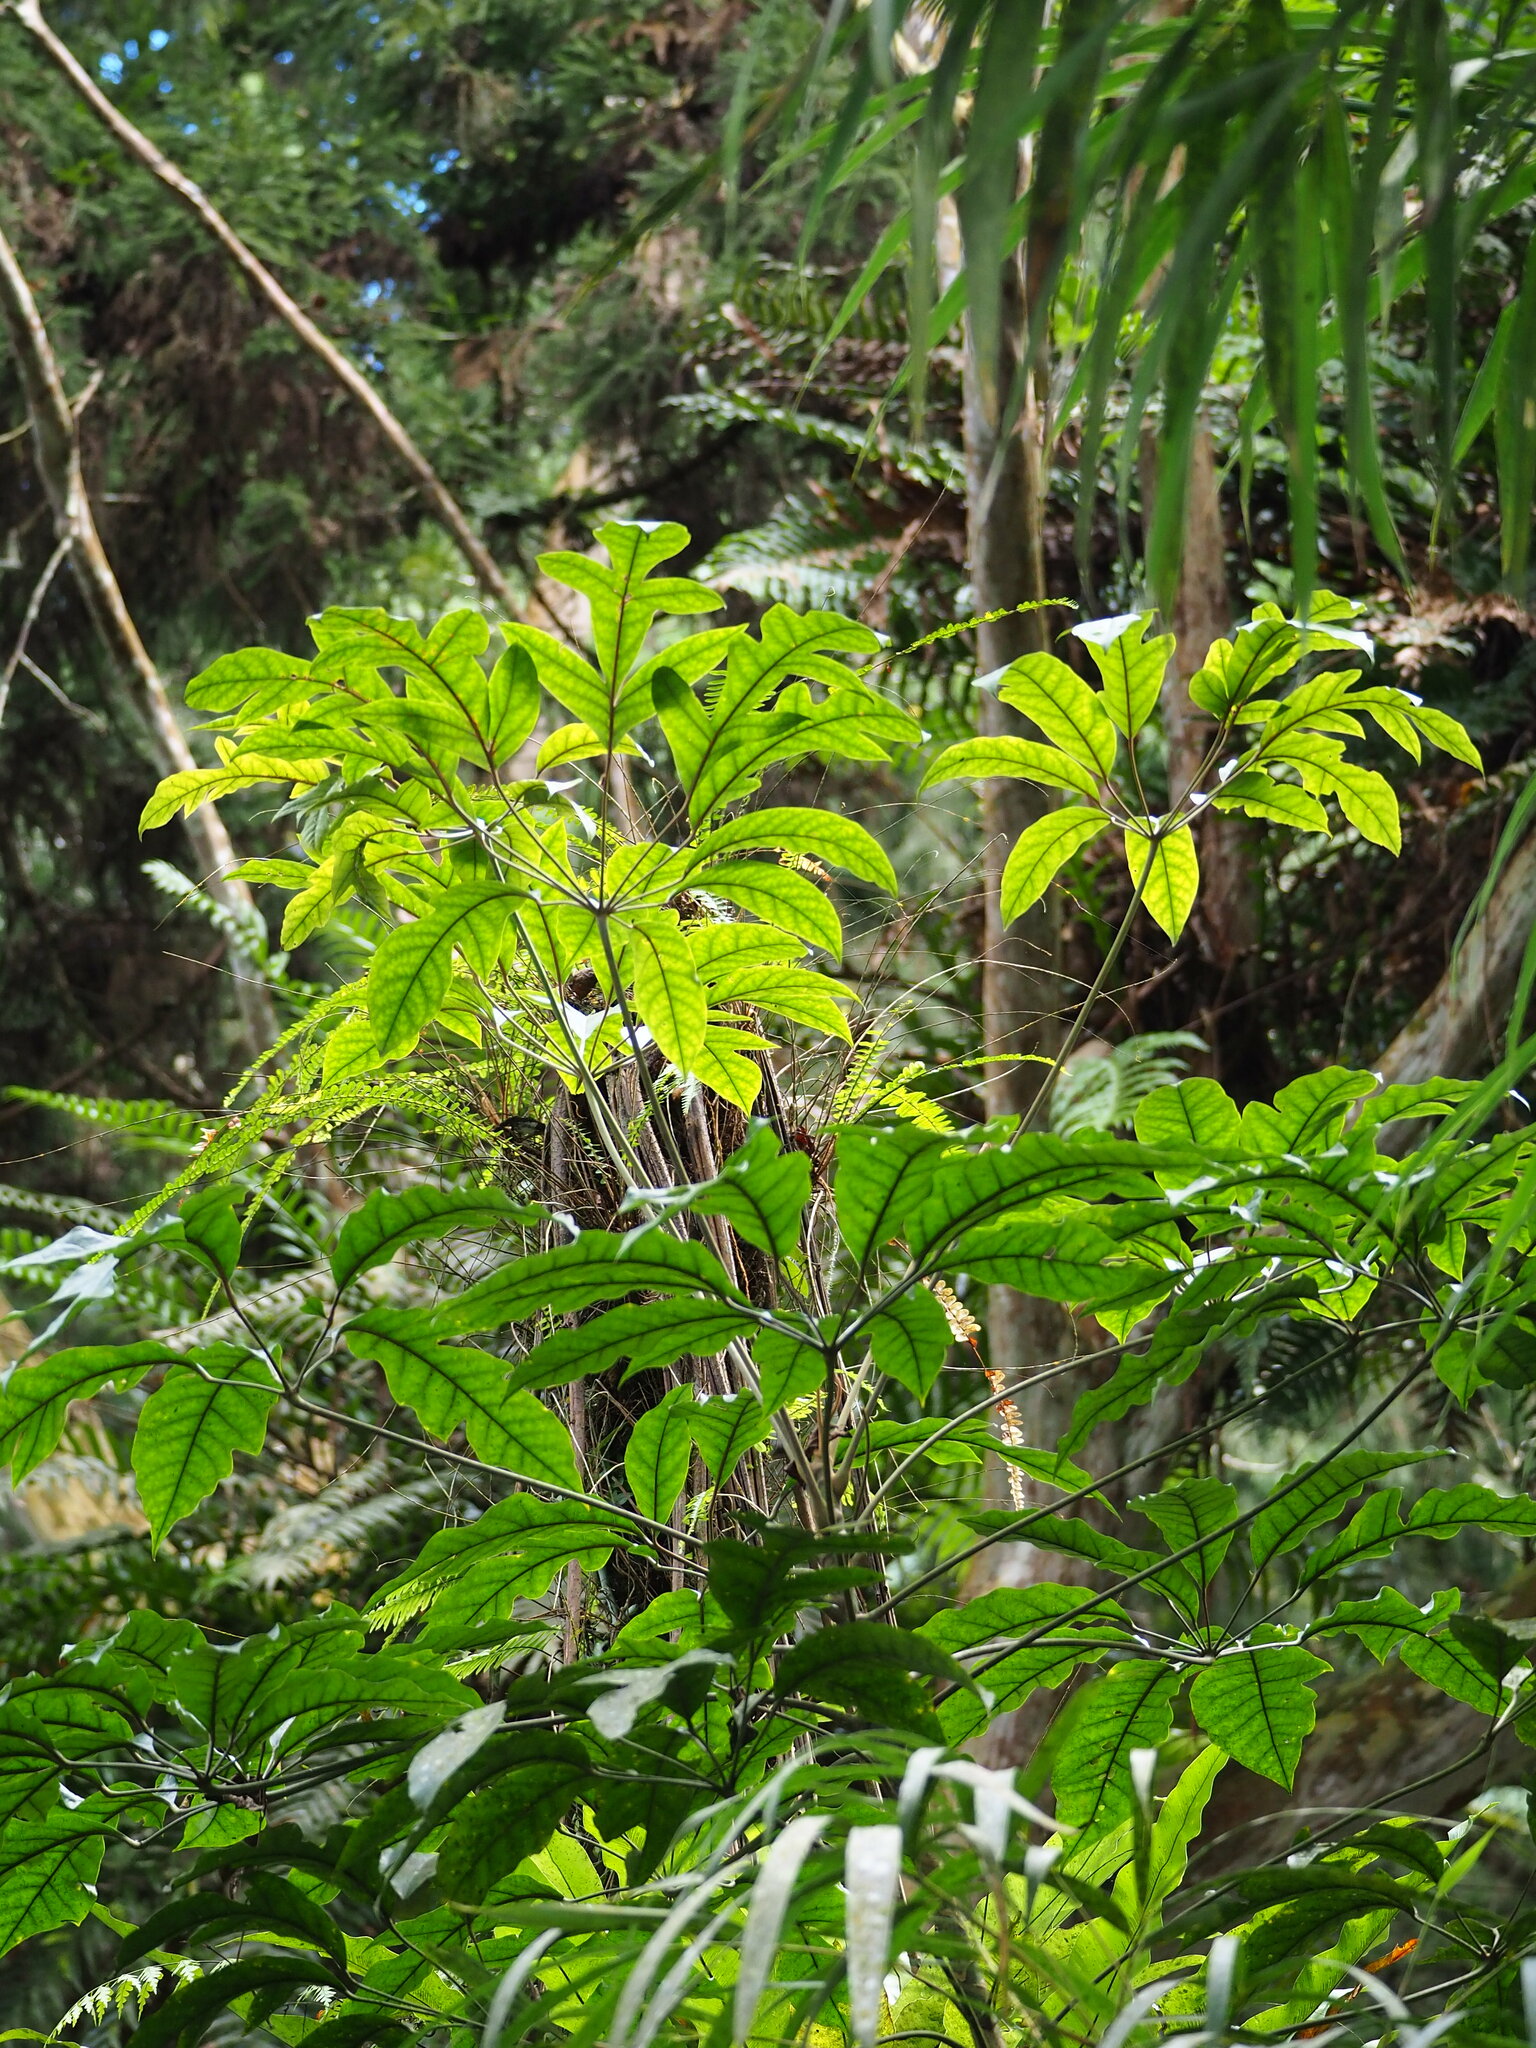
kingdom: Plantae
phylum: Tracheophyta
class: Magnoliopsida
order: Apiales
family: Araliaceae
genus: Heptapleurum
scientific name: Heptapleurum heptaphyllum
